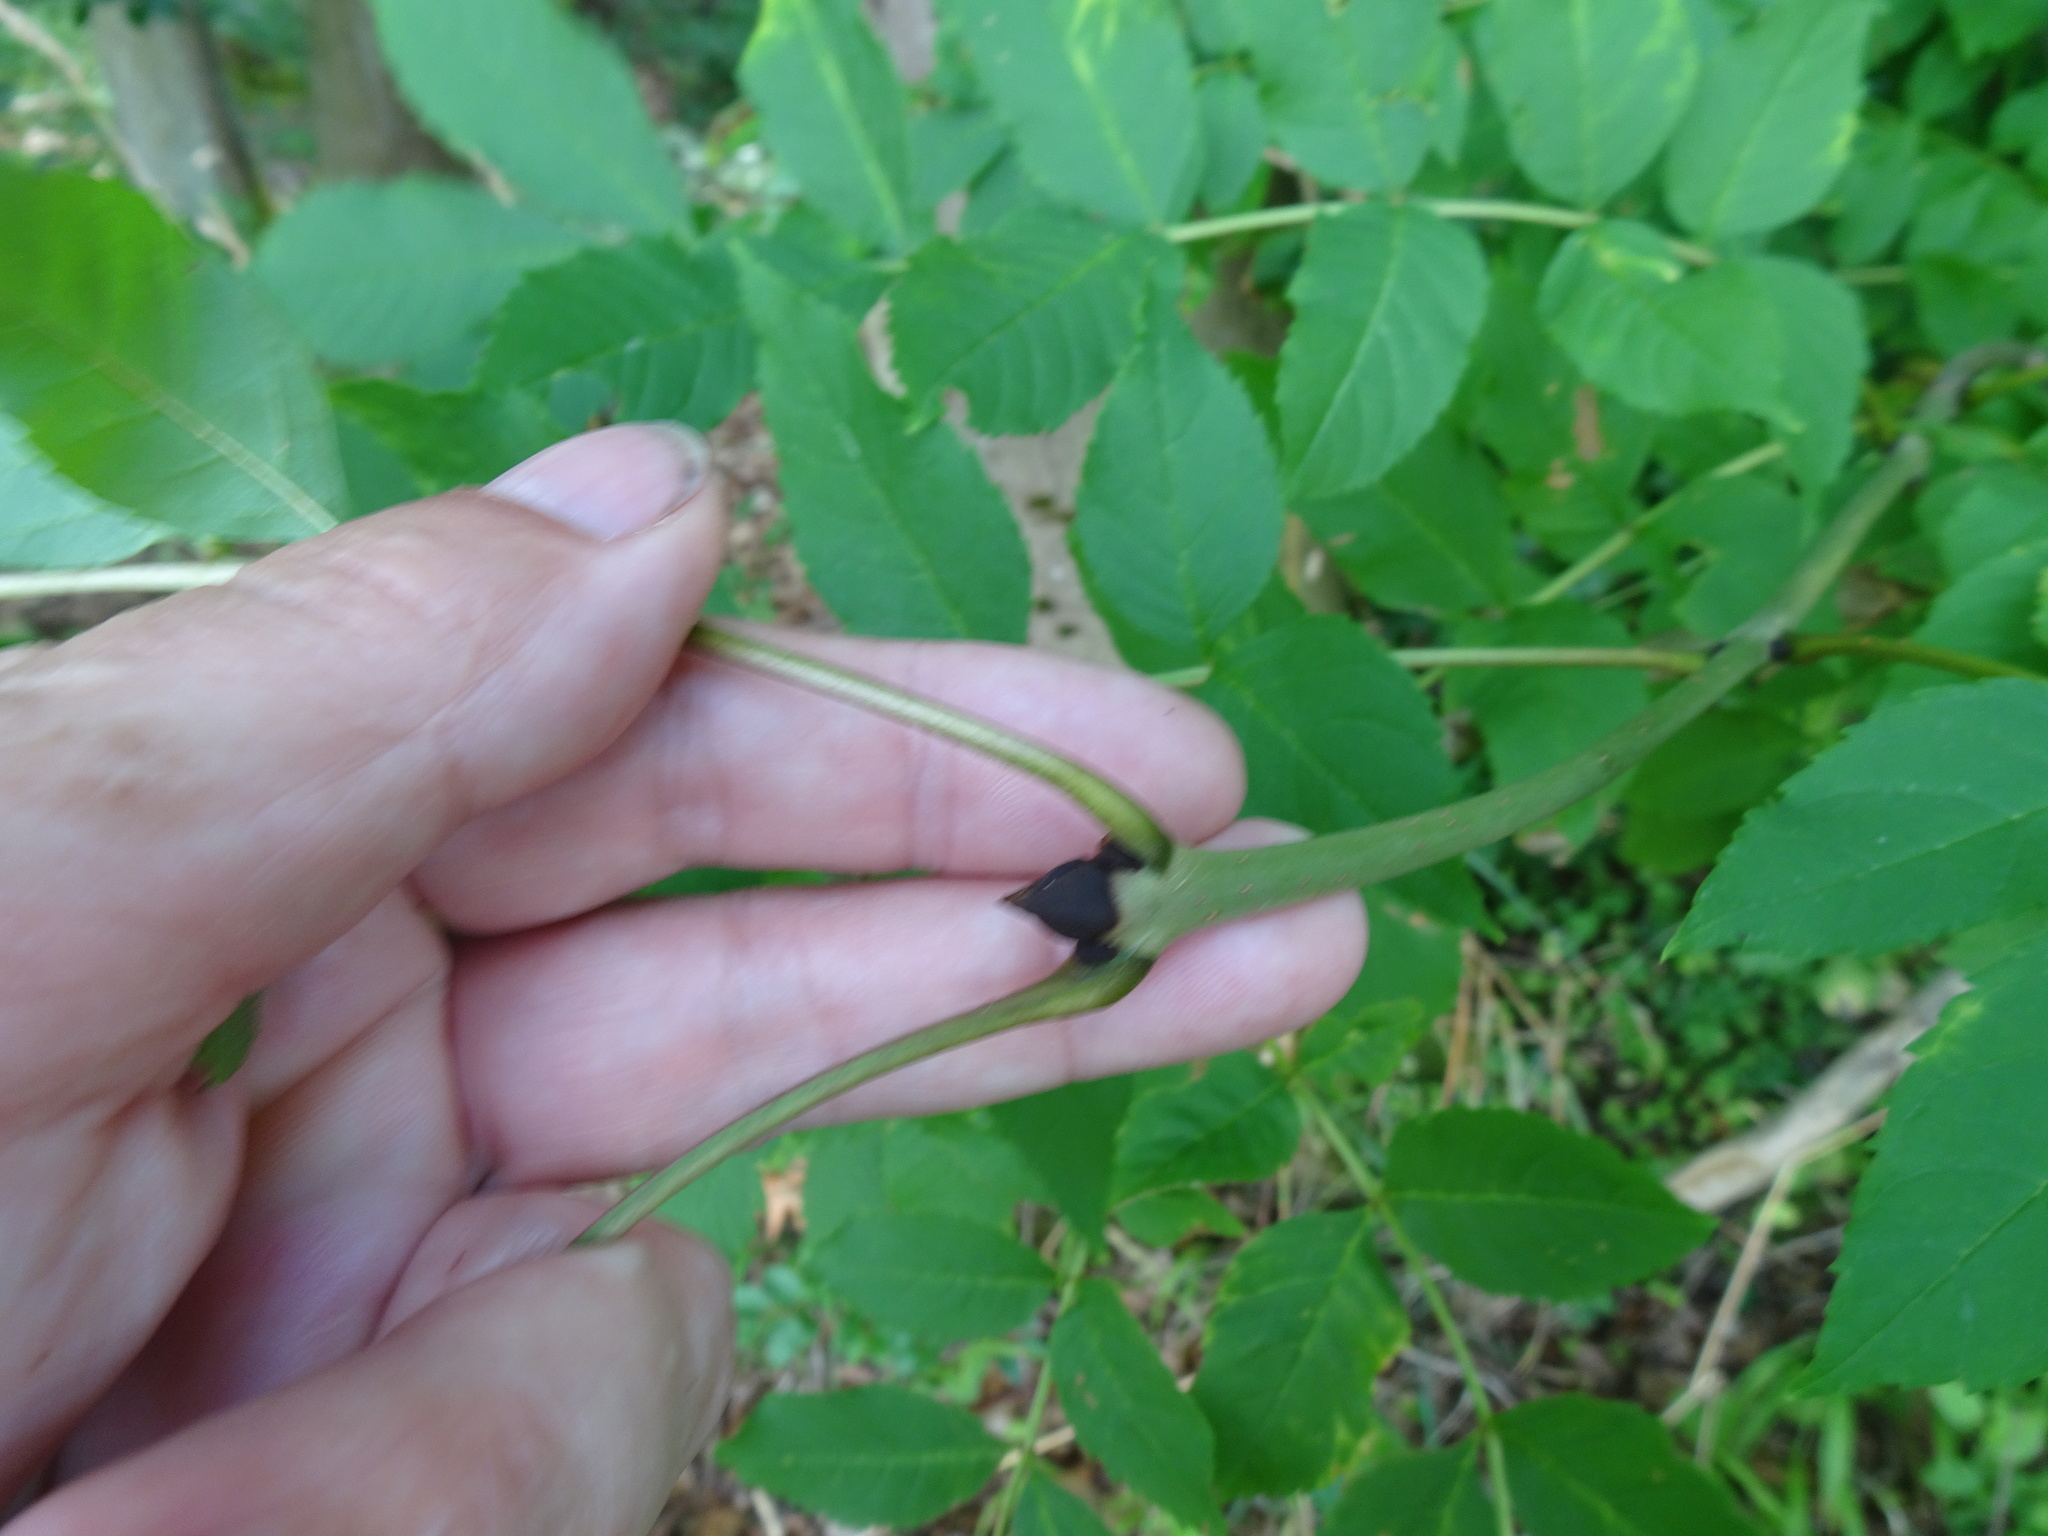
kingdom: Plantae
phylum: Tracheophyta
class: Magnoliopsida
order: Lamiales
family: Oleaceae
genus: Fraxinus
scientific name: Fraxinus excelsior
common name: European ash
